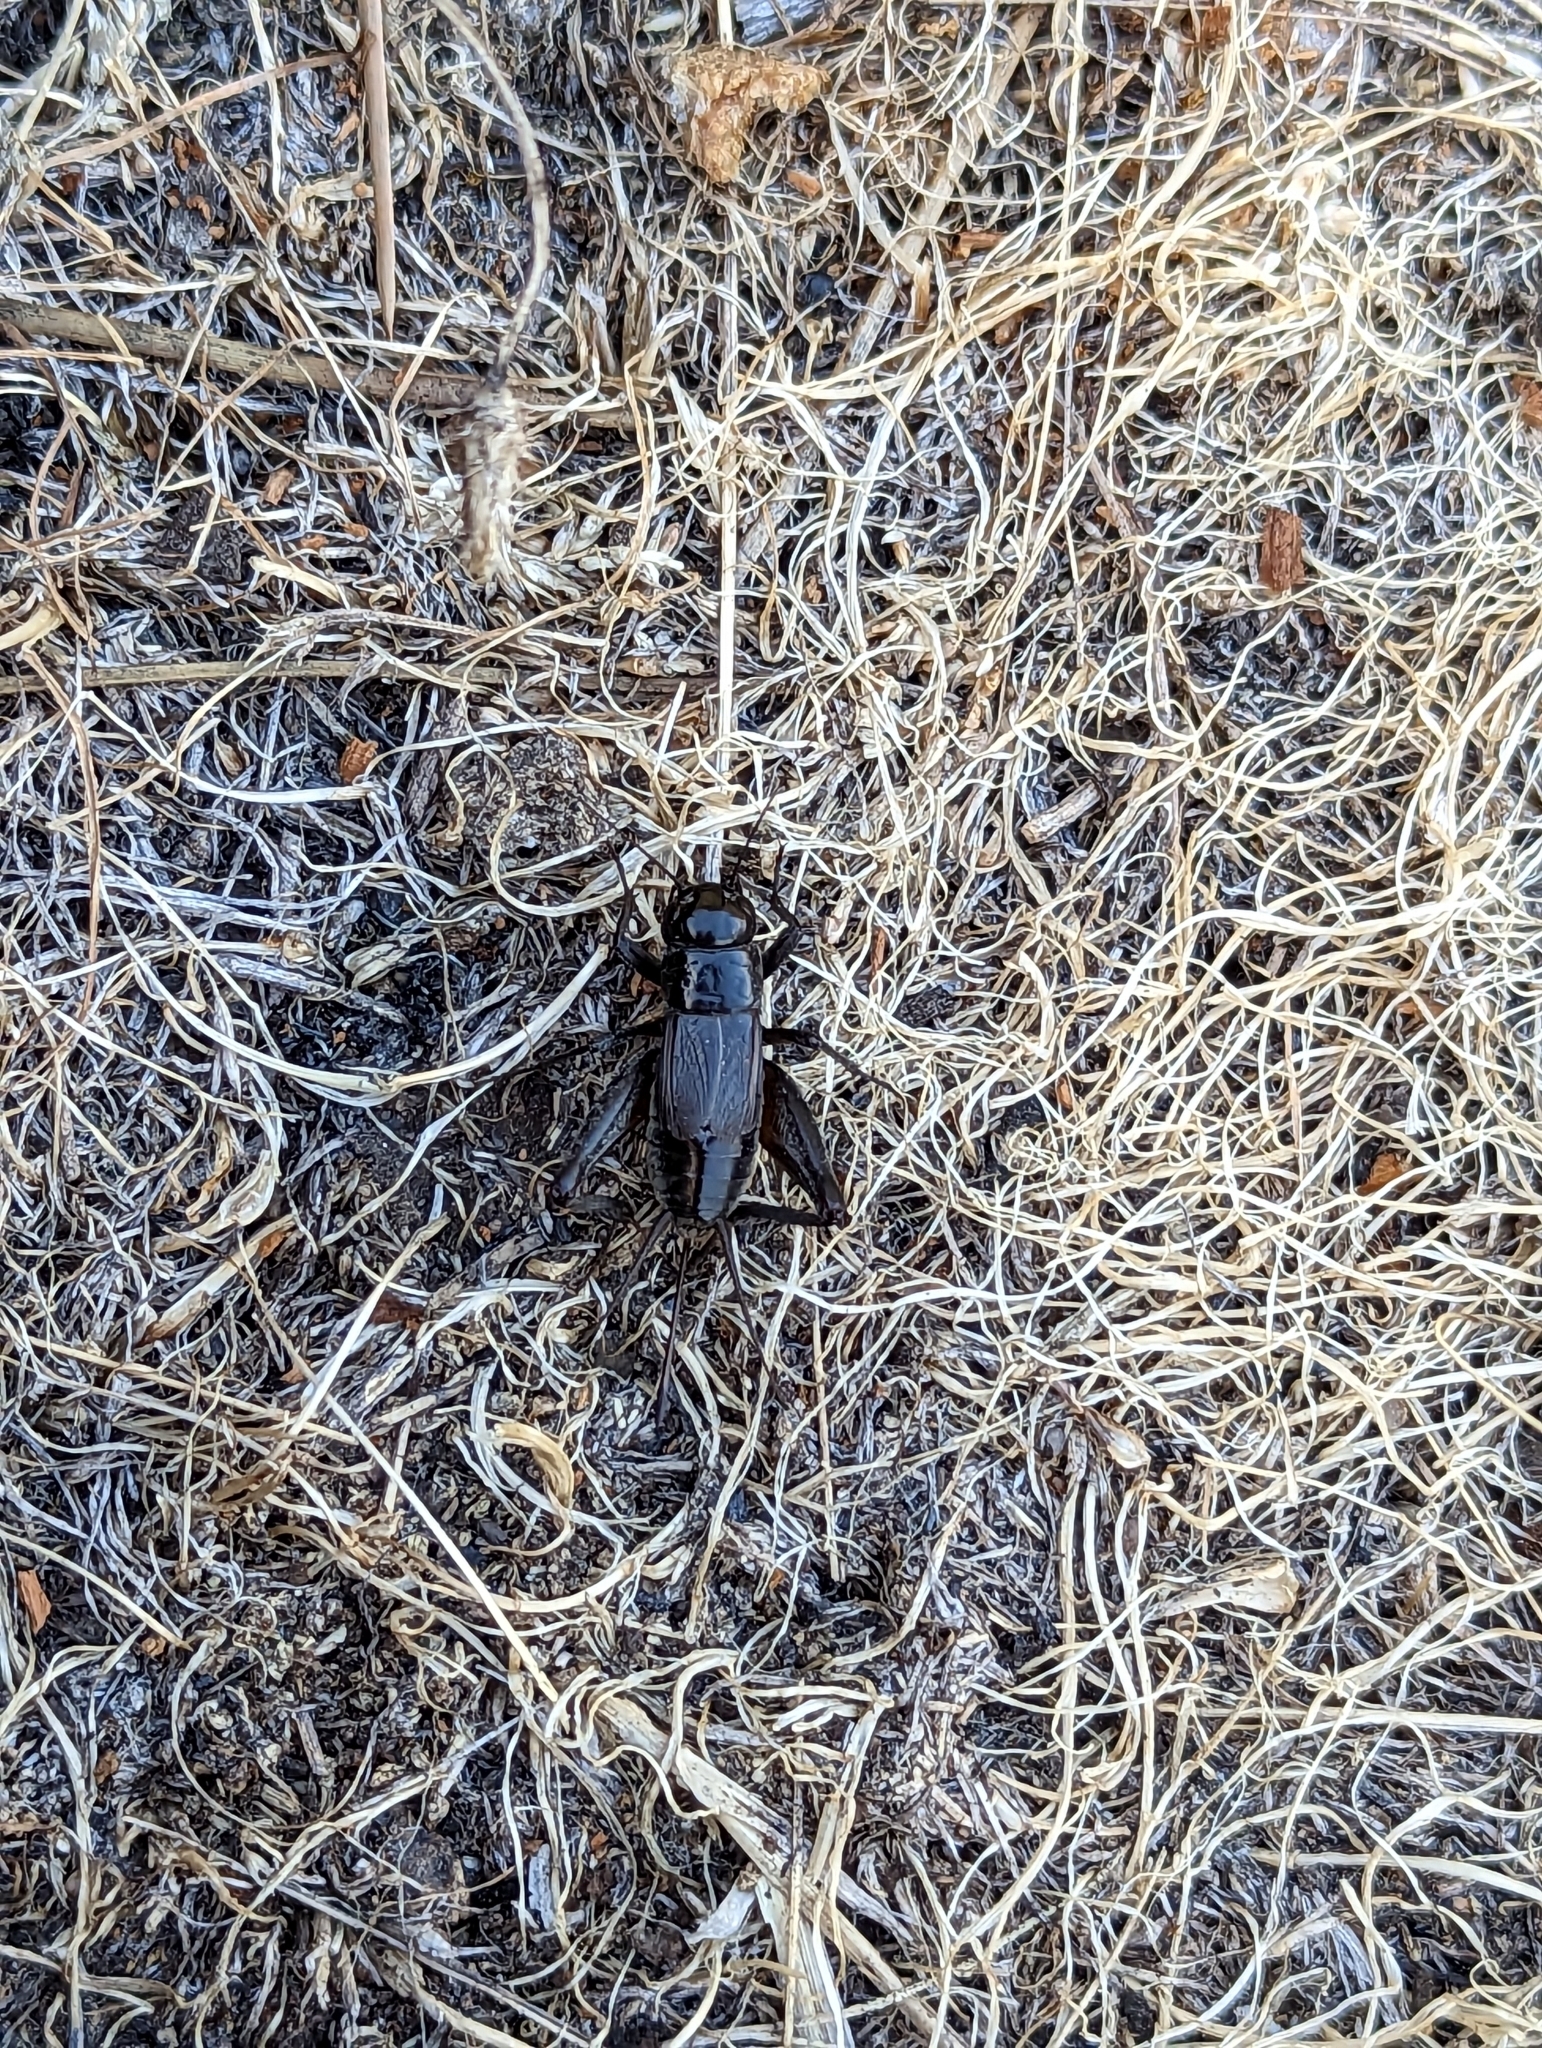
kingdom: Animalia
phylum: Arthropoda
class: Insecta
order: Orthoptera
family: Gryllidae
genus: Gryllus
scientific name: Gryllus veletis
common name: Spring field cricket
